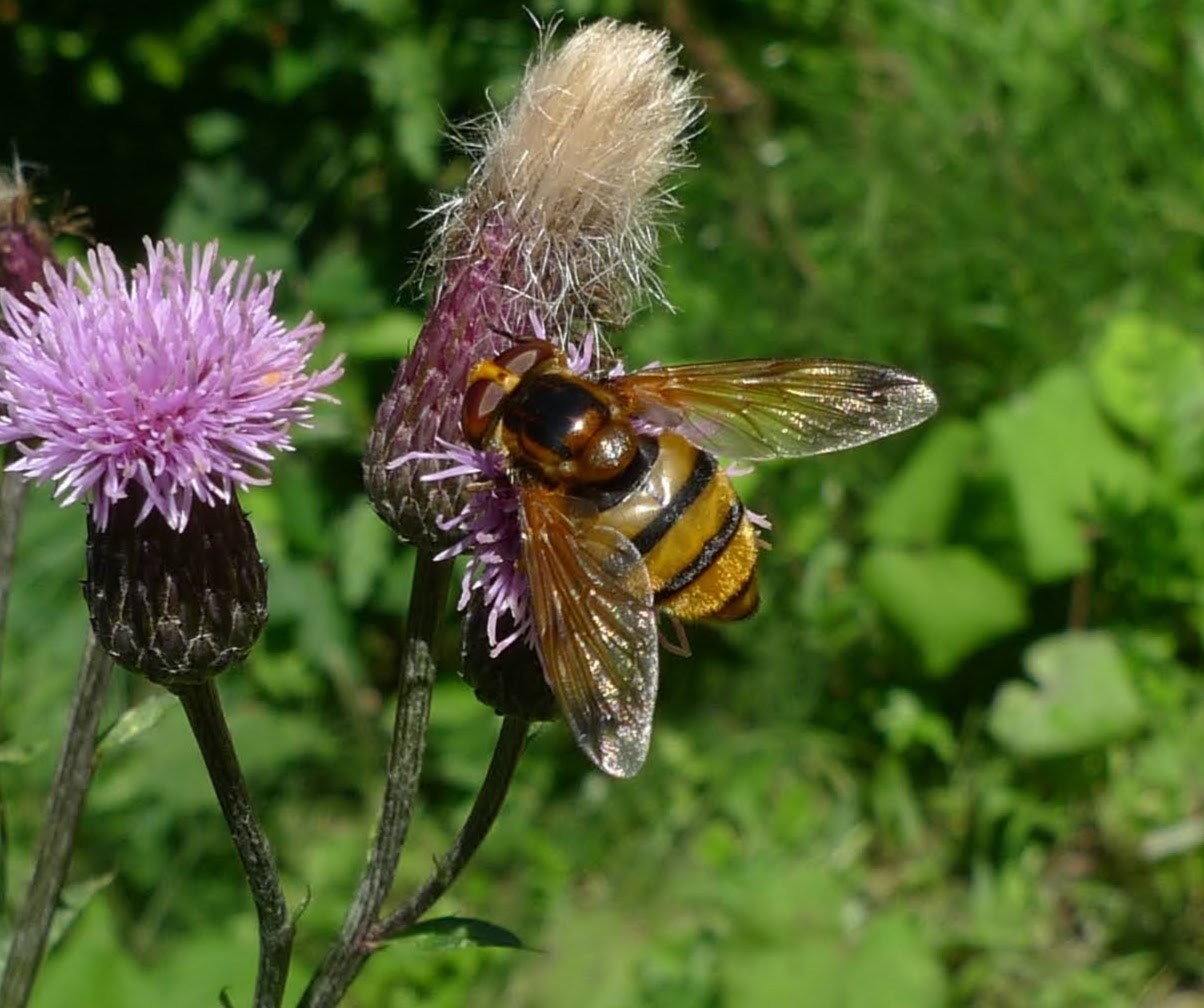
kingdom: Animalia
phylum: Arthropoda
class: Insecta
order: Diptera
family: Syrphidae
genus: Volucella
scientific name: Volucella inanis
